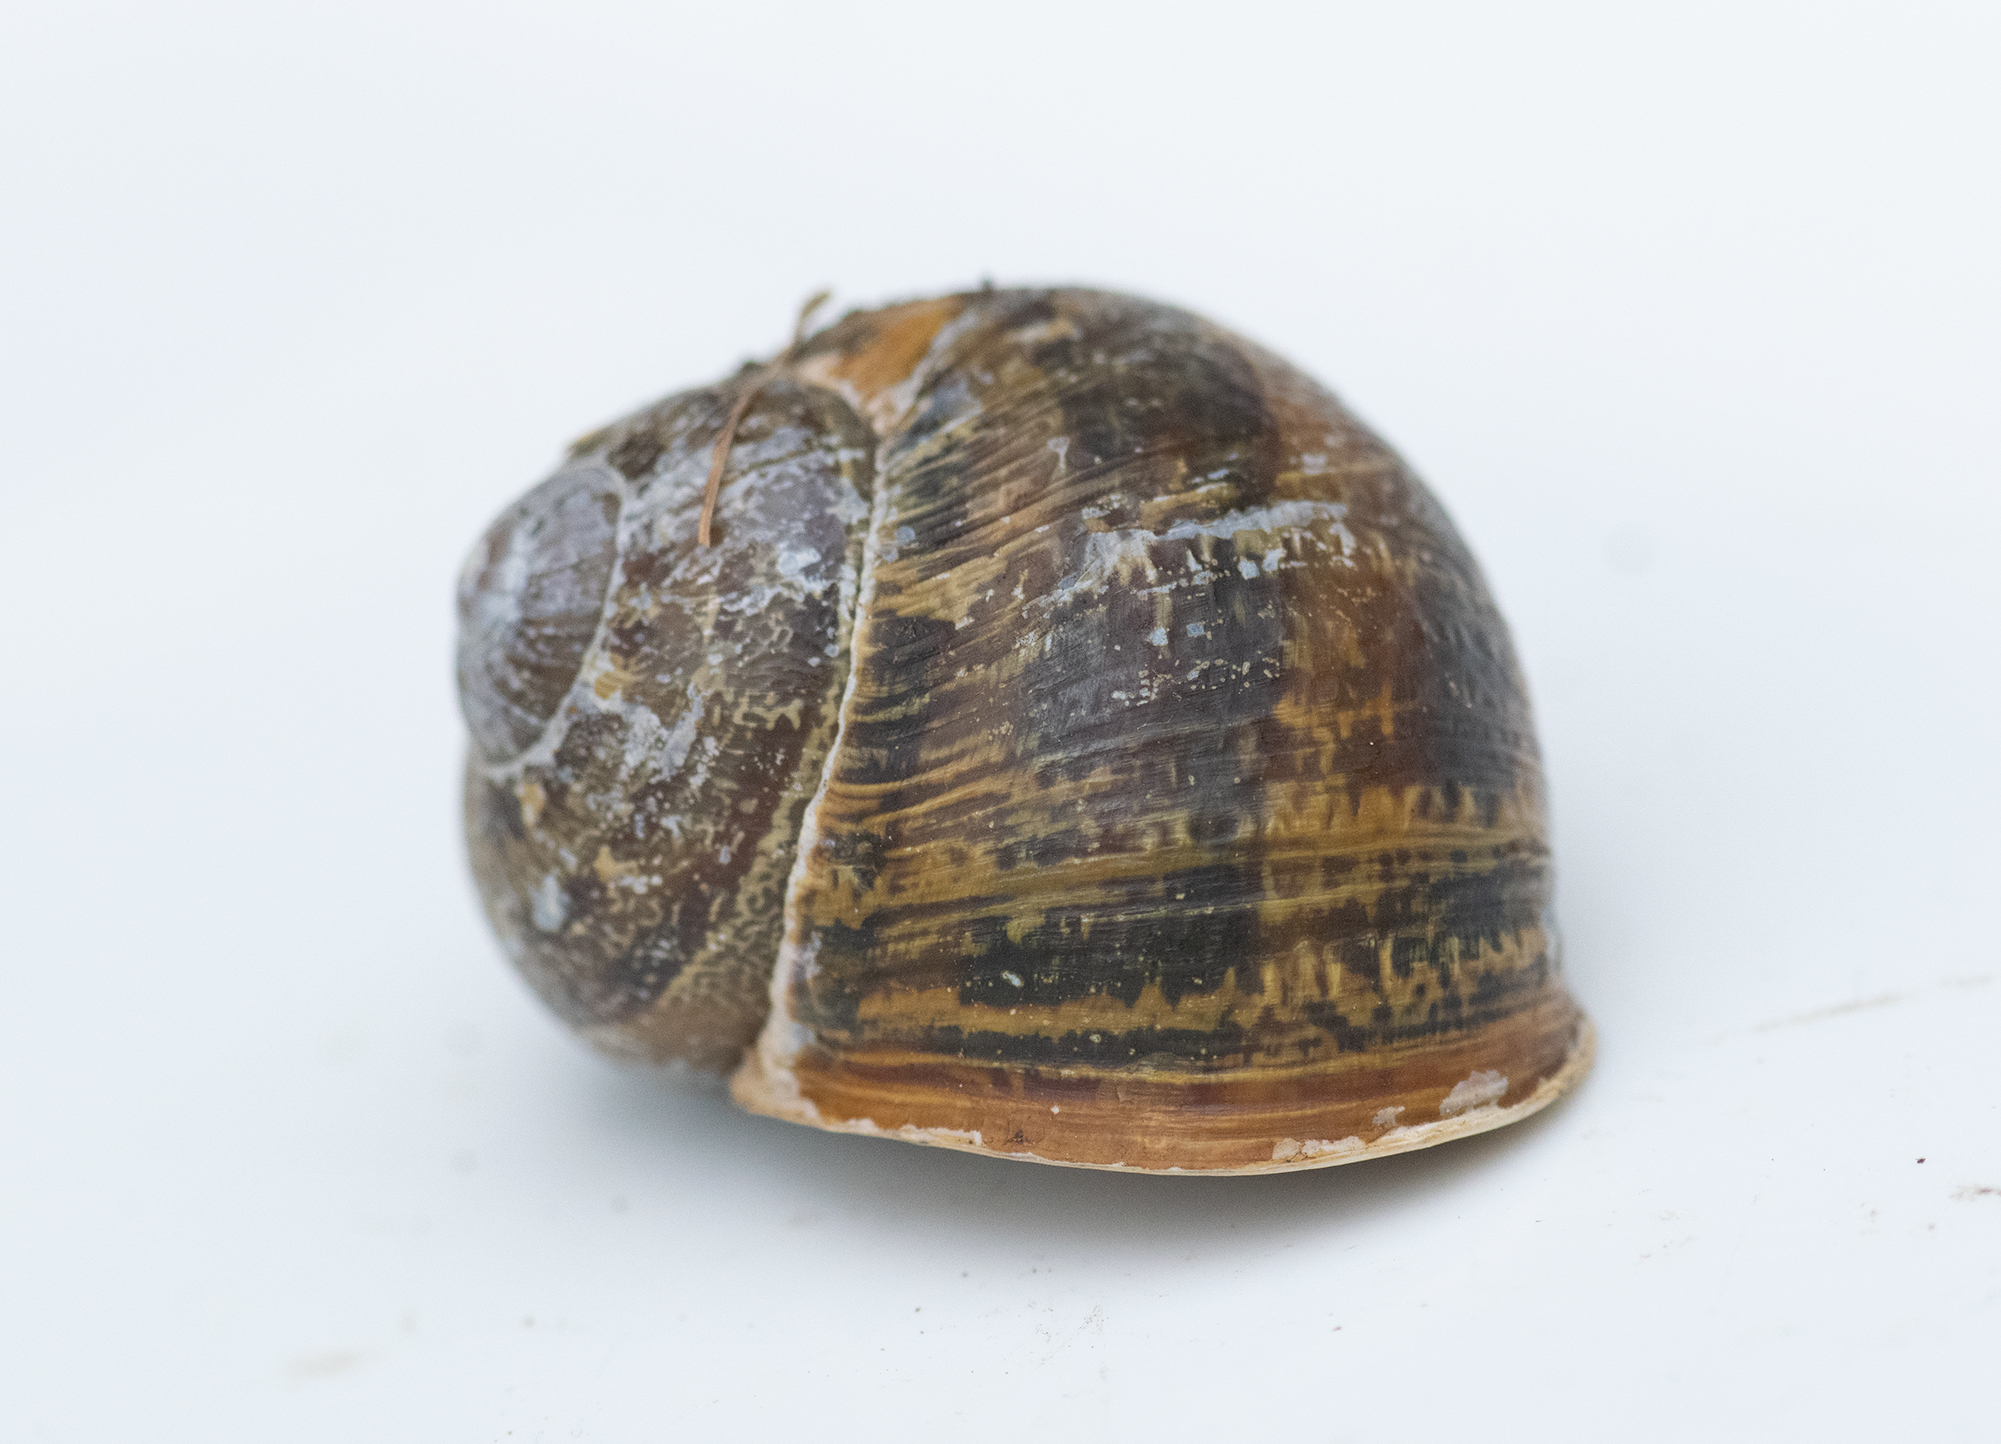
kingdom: Animalia
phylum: Mollusca
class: Gastropoda
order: Stylommatophora
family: Helicidae
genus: Cornu
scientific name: Cornu aspersum
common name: Brown garden snail
